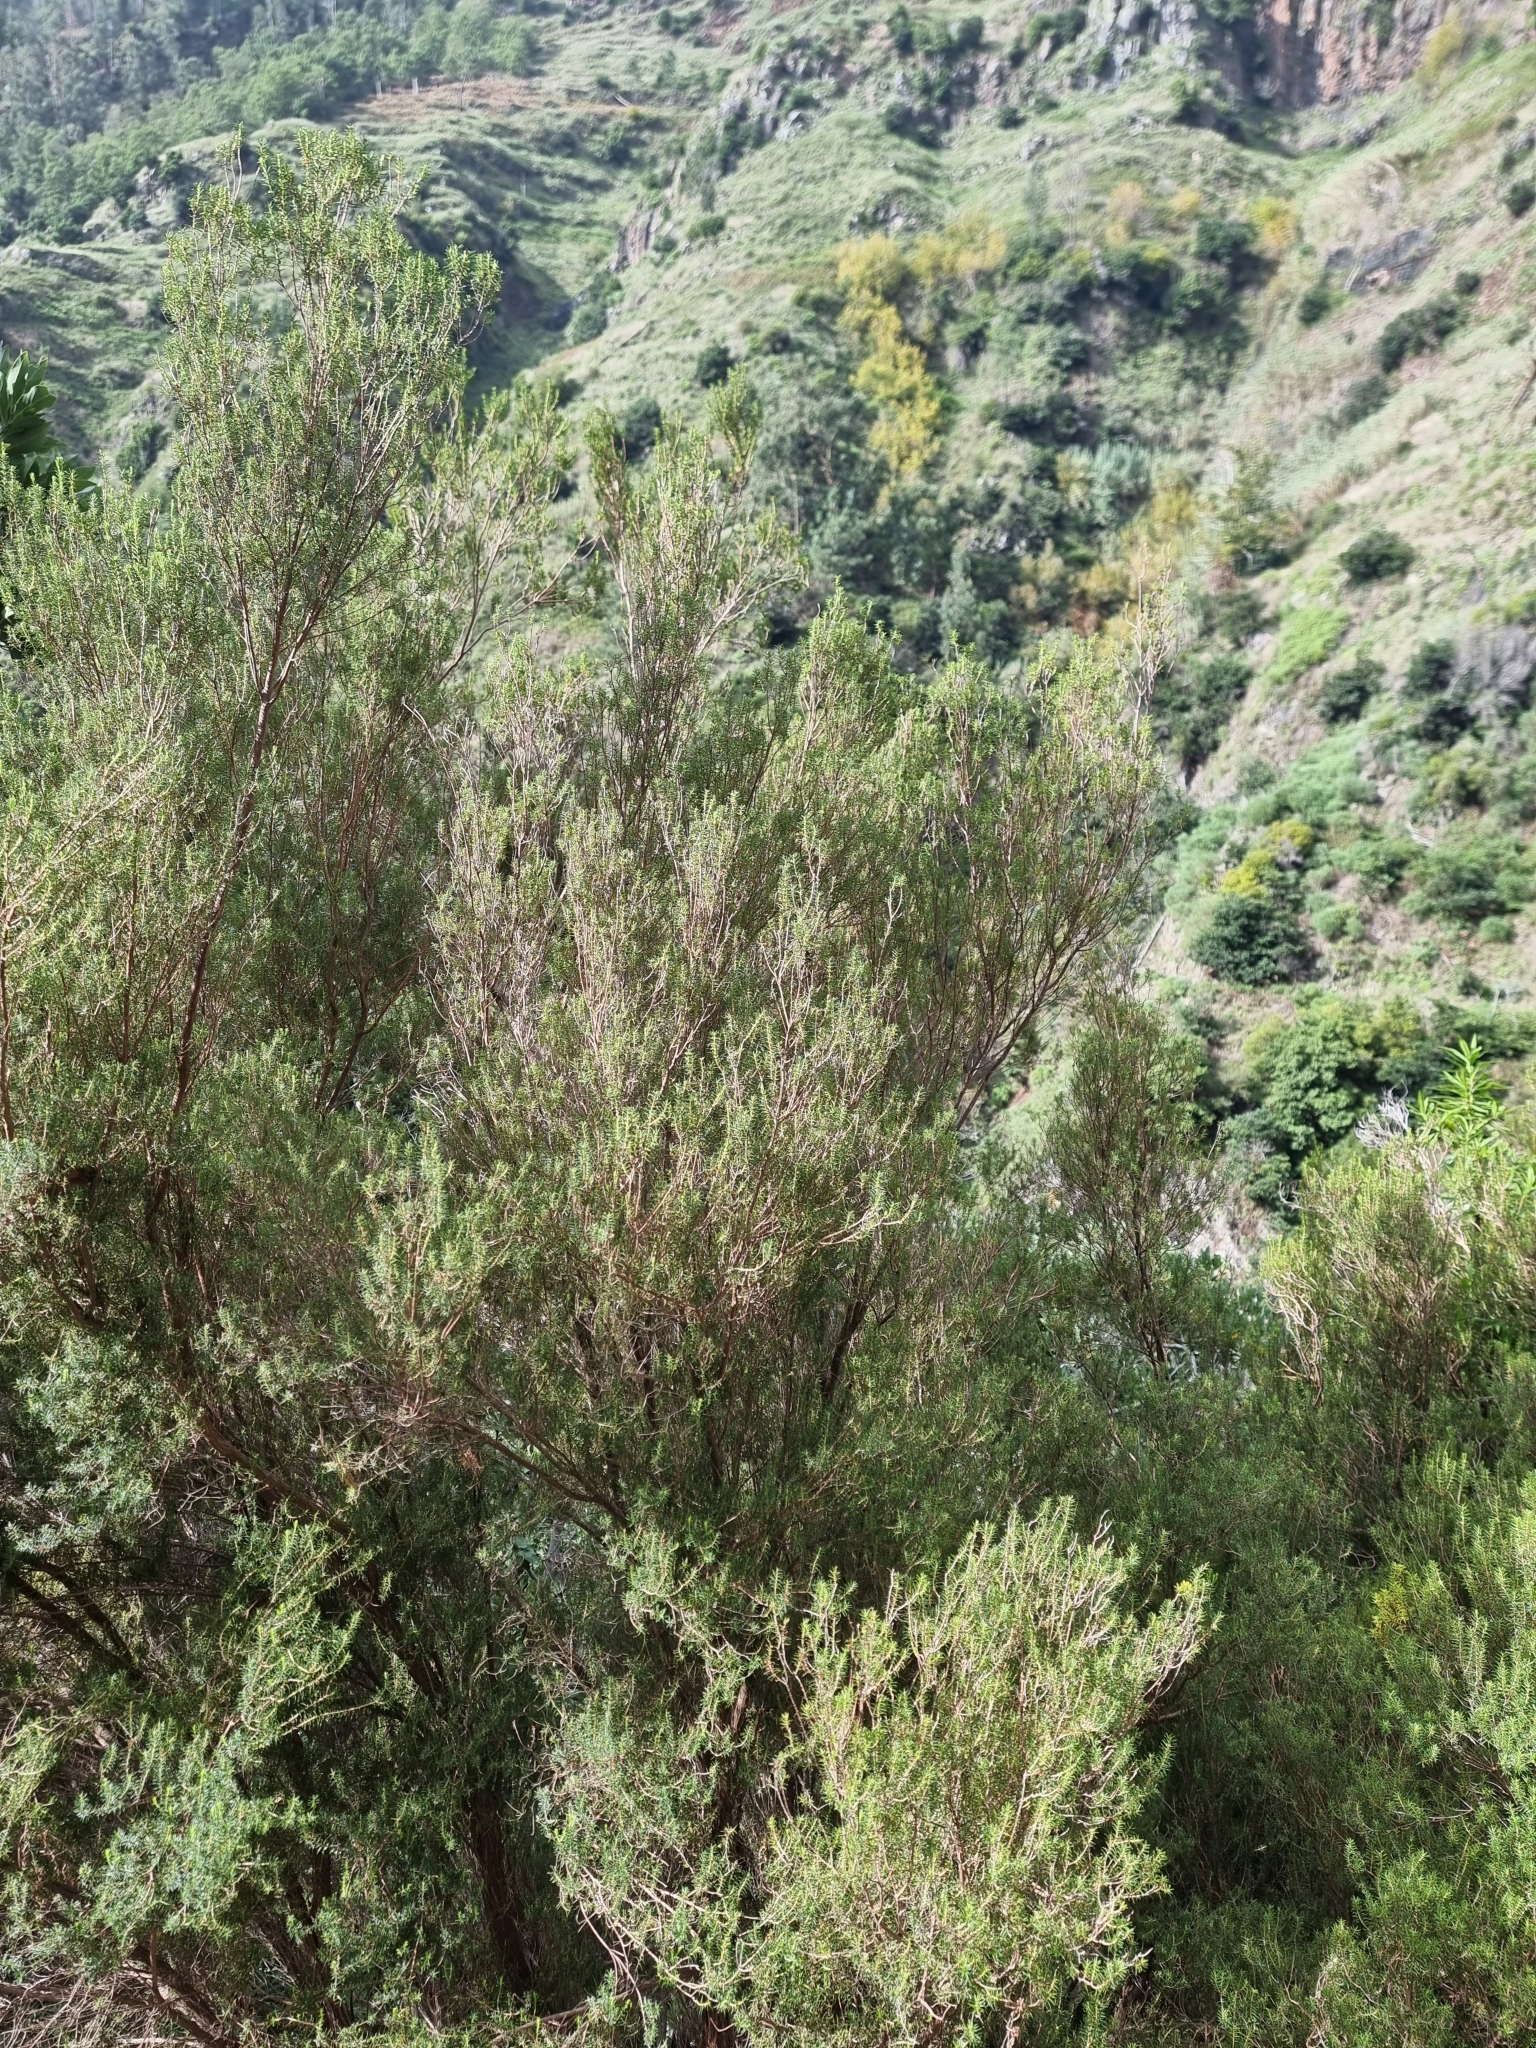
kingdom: Plantae
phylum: Tracheophyta
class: Magnoliopsida
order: Ericales
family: Ericaceae
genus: Erica
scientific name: Erica platycodon
